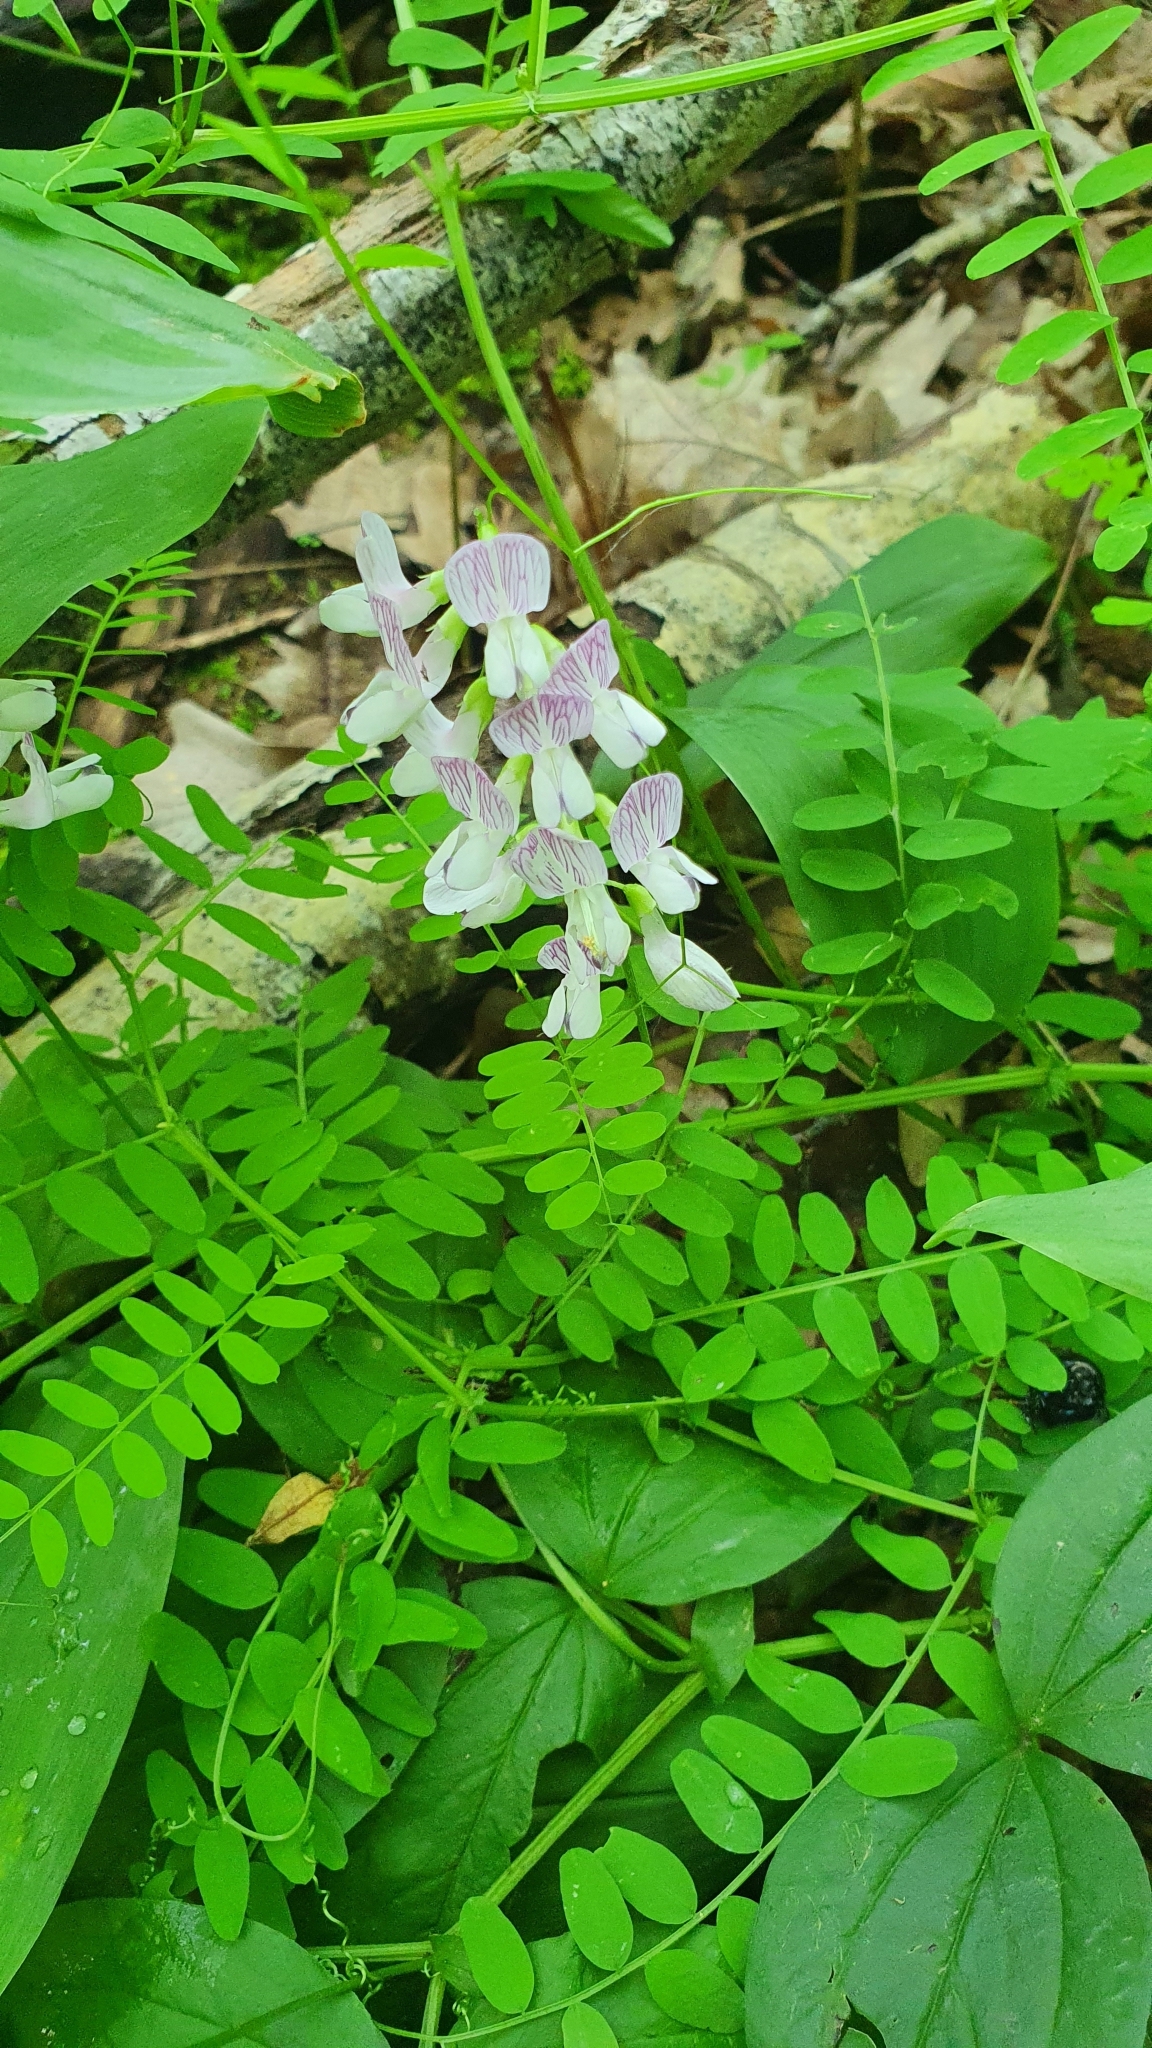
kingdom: Plantae
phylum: Tracheophyta
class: Magnoliopsida
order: Fabales
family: Fabaceae
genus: Vicia
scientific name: Vicia sylvatica
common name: Wood vetch
